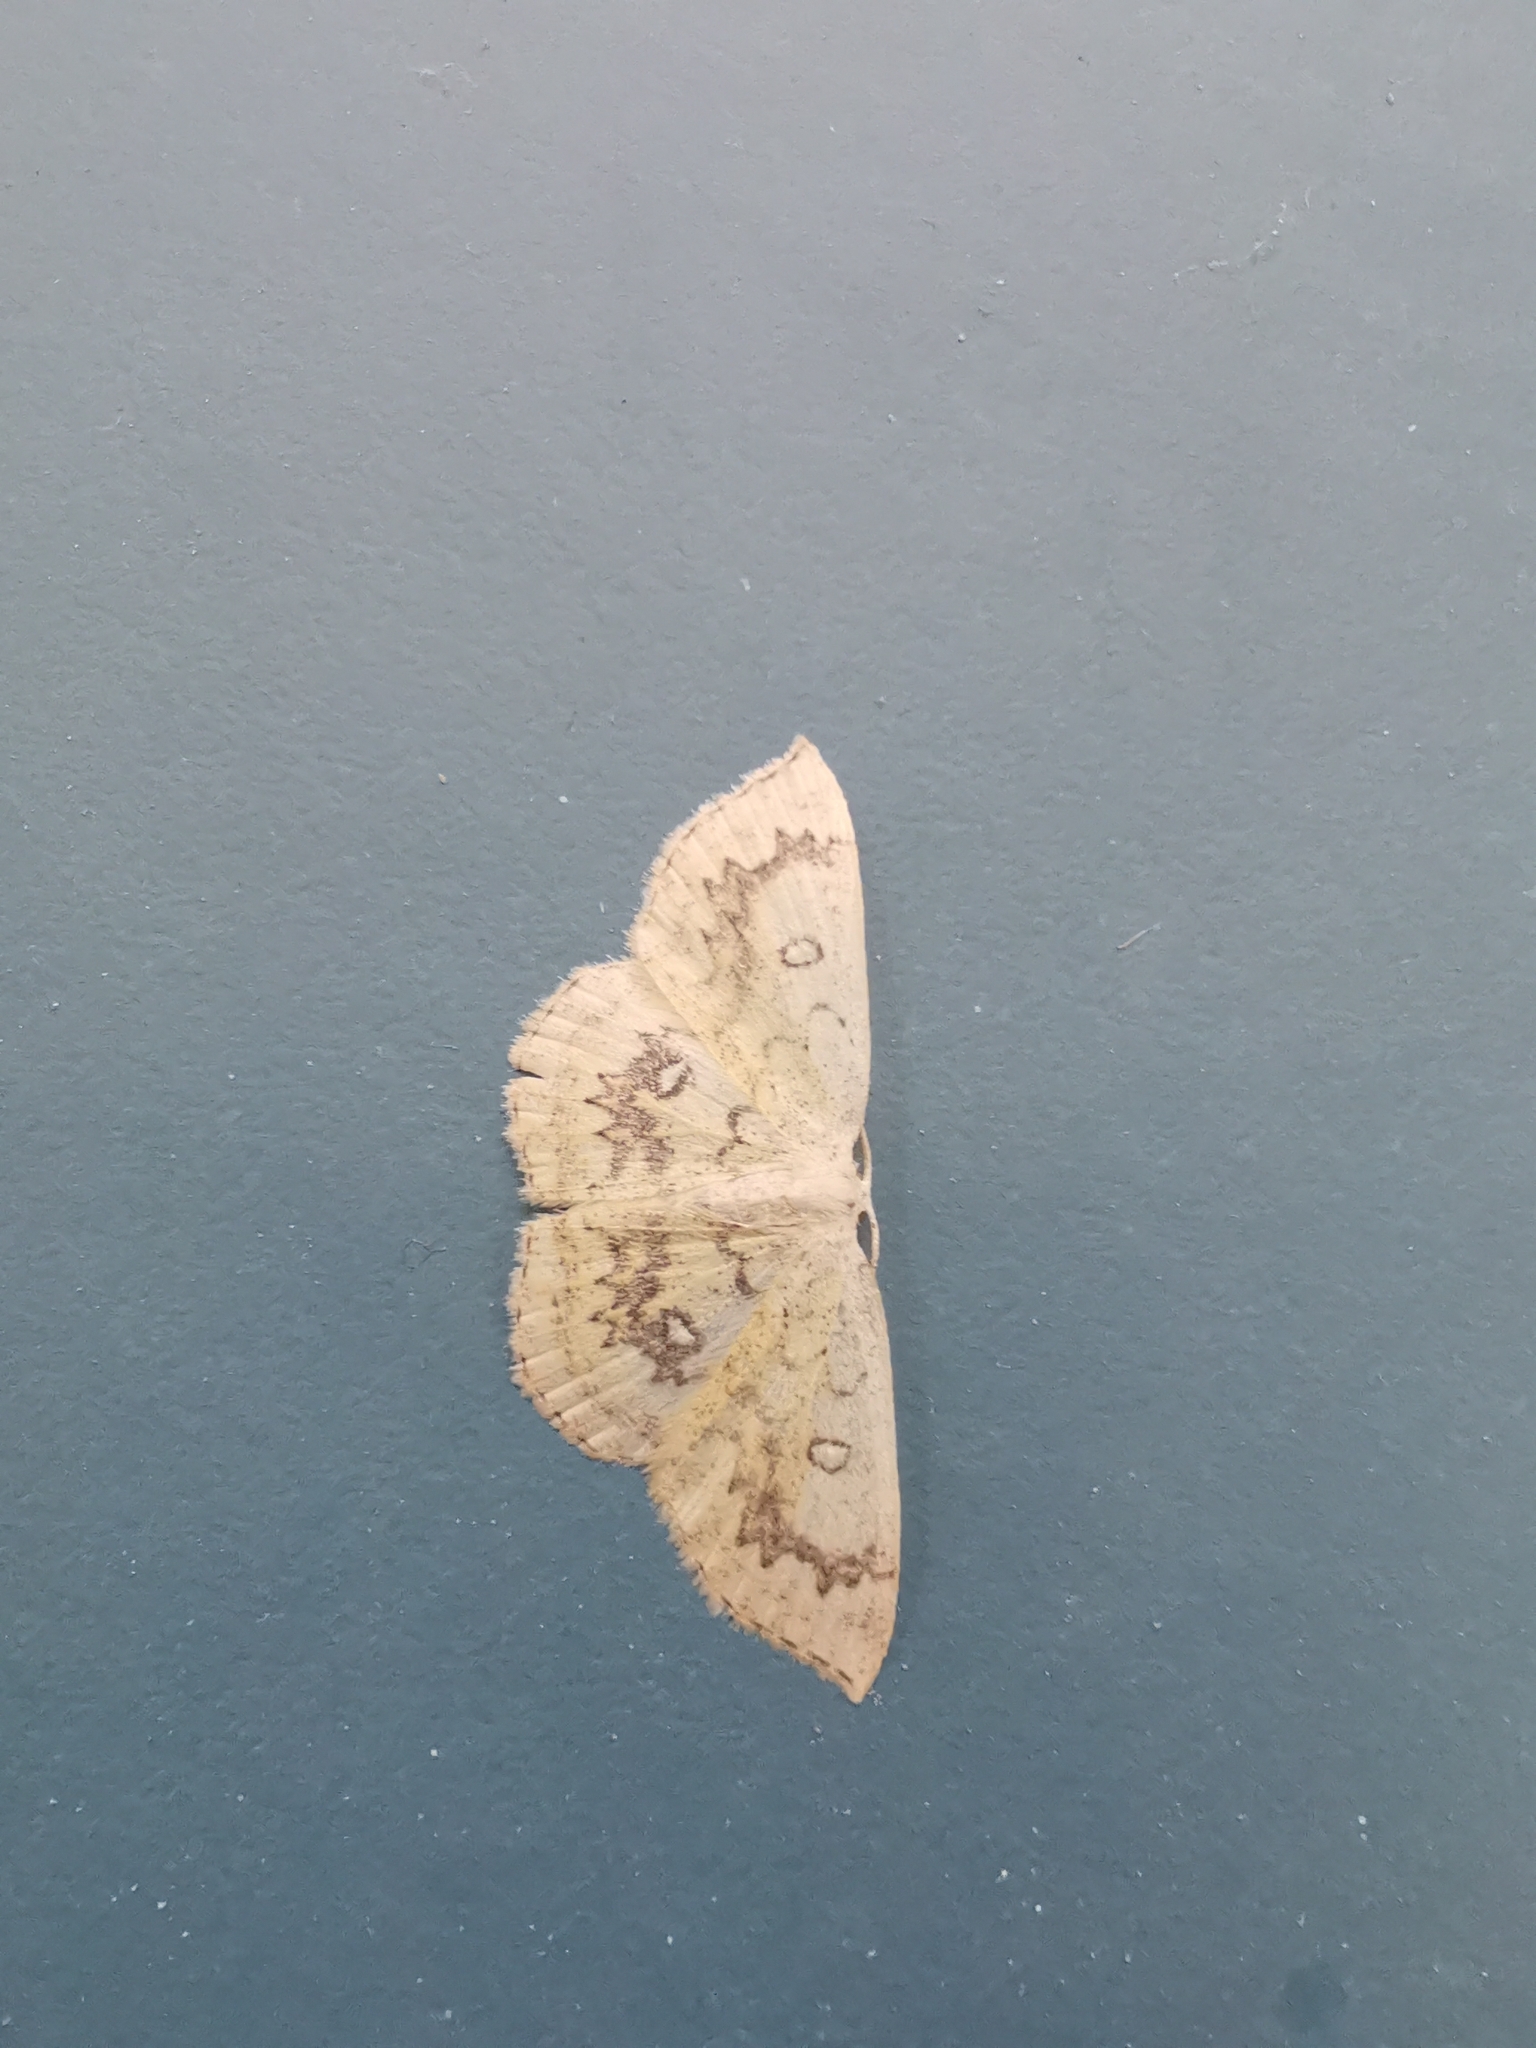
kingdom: Animalia
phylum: Arthropoda
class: Insecta
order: Lepidoptera
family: Geometridae
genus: Cyclophora
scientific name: Cyclophora annularia
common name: Mocha
